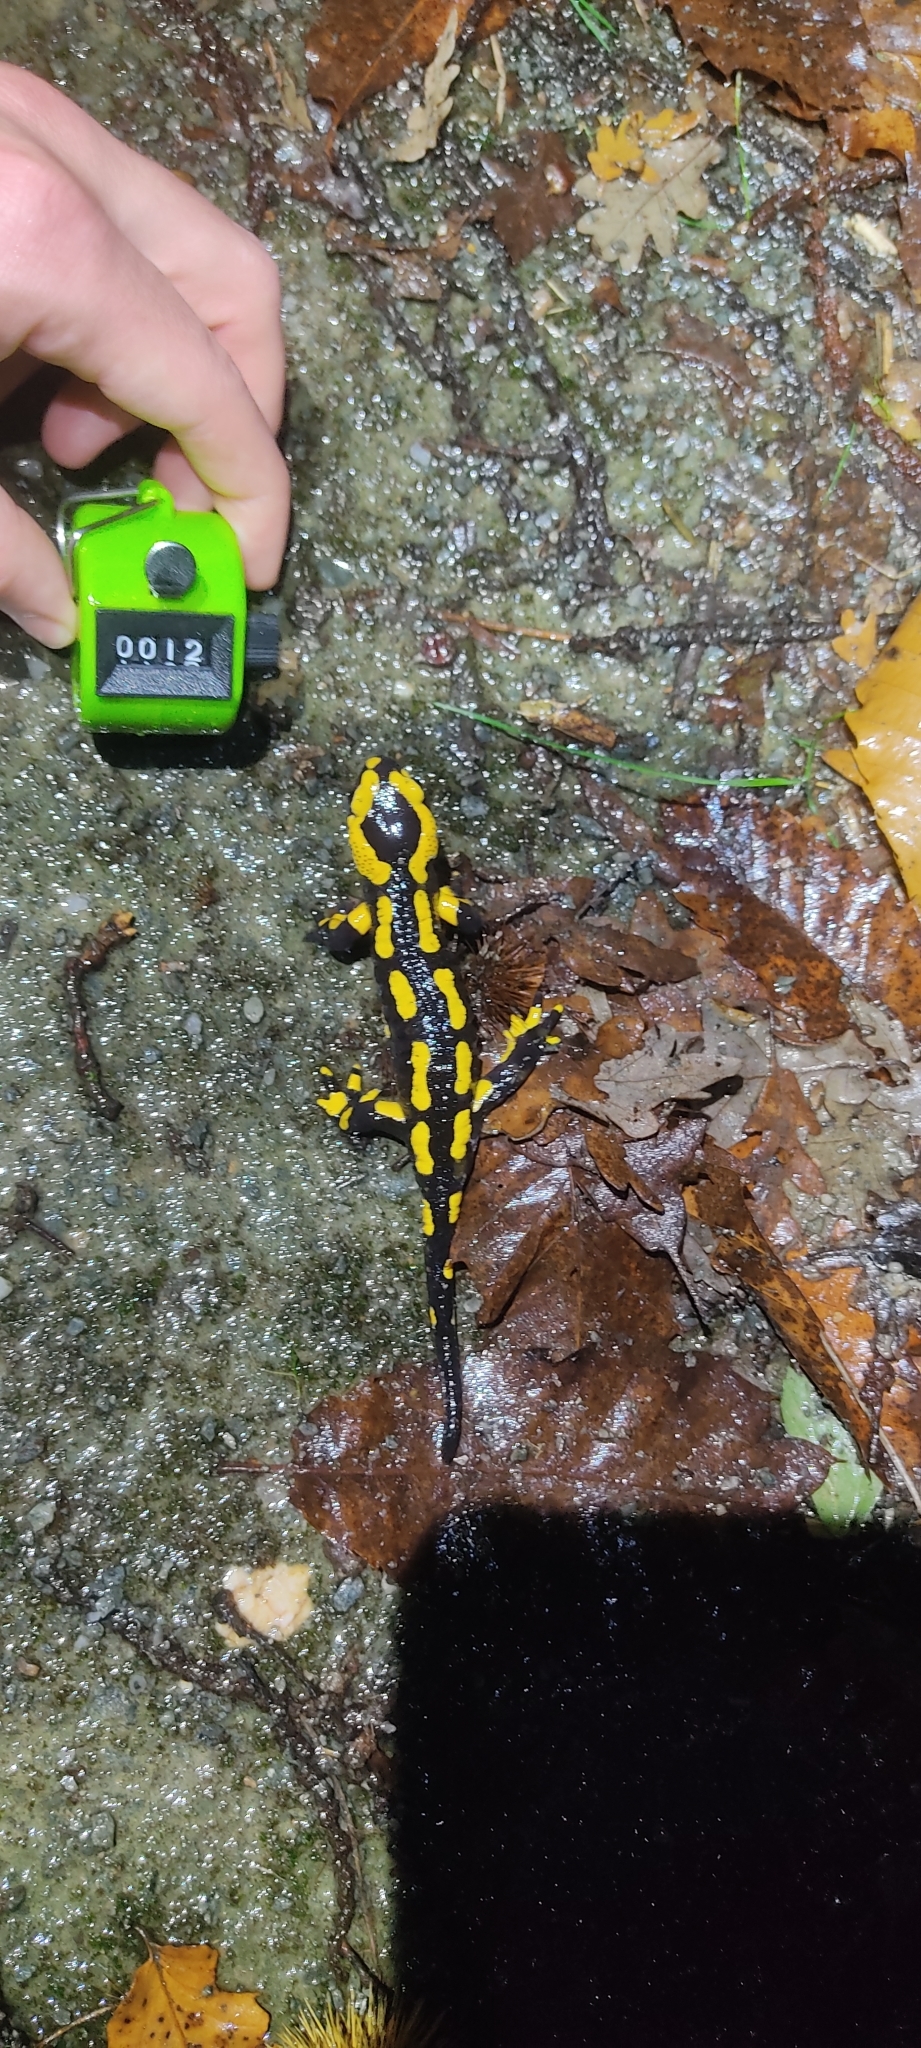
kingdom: Animalia
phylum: Chordata
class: Amphibia
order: Caudata
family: Salamandridae
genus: Salamandra
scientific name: Salamandra salamandra
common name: Fire salamander
